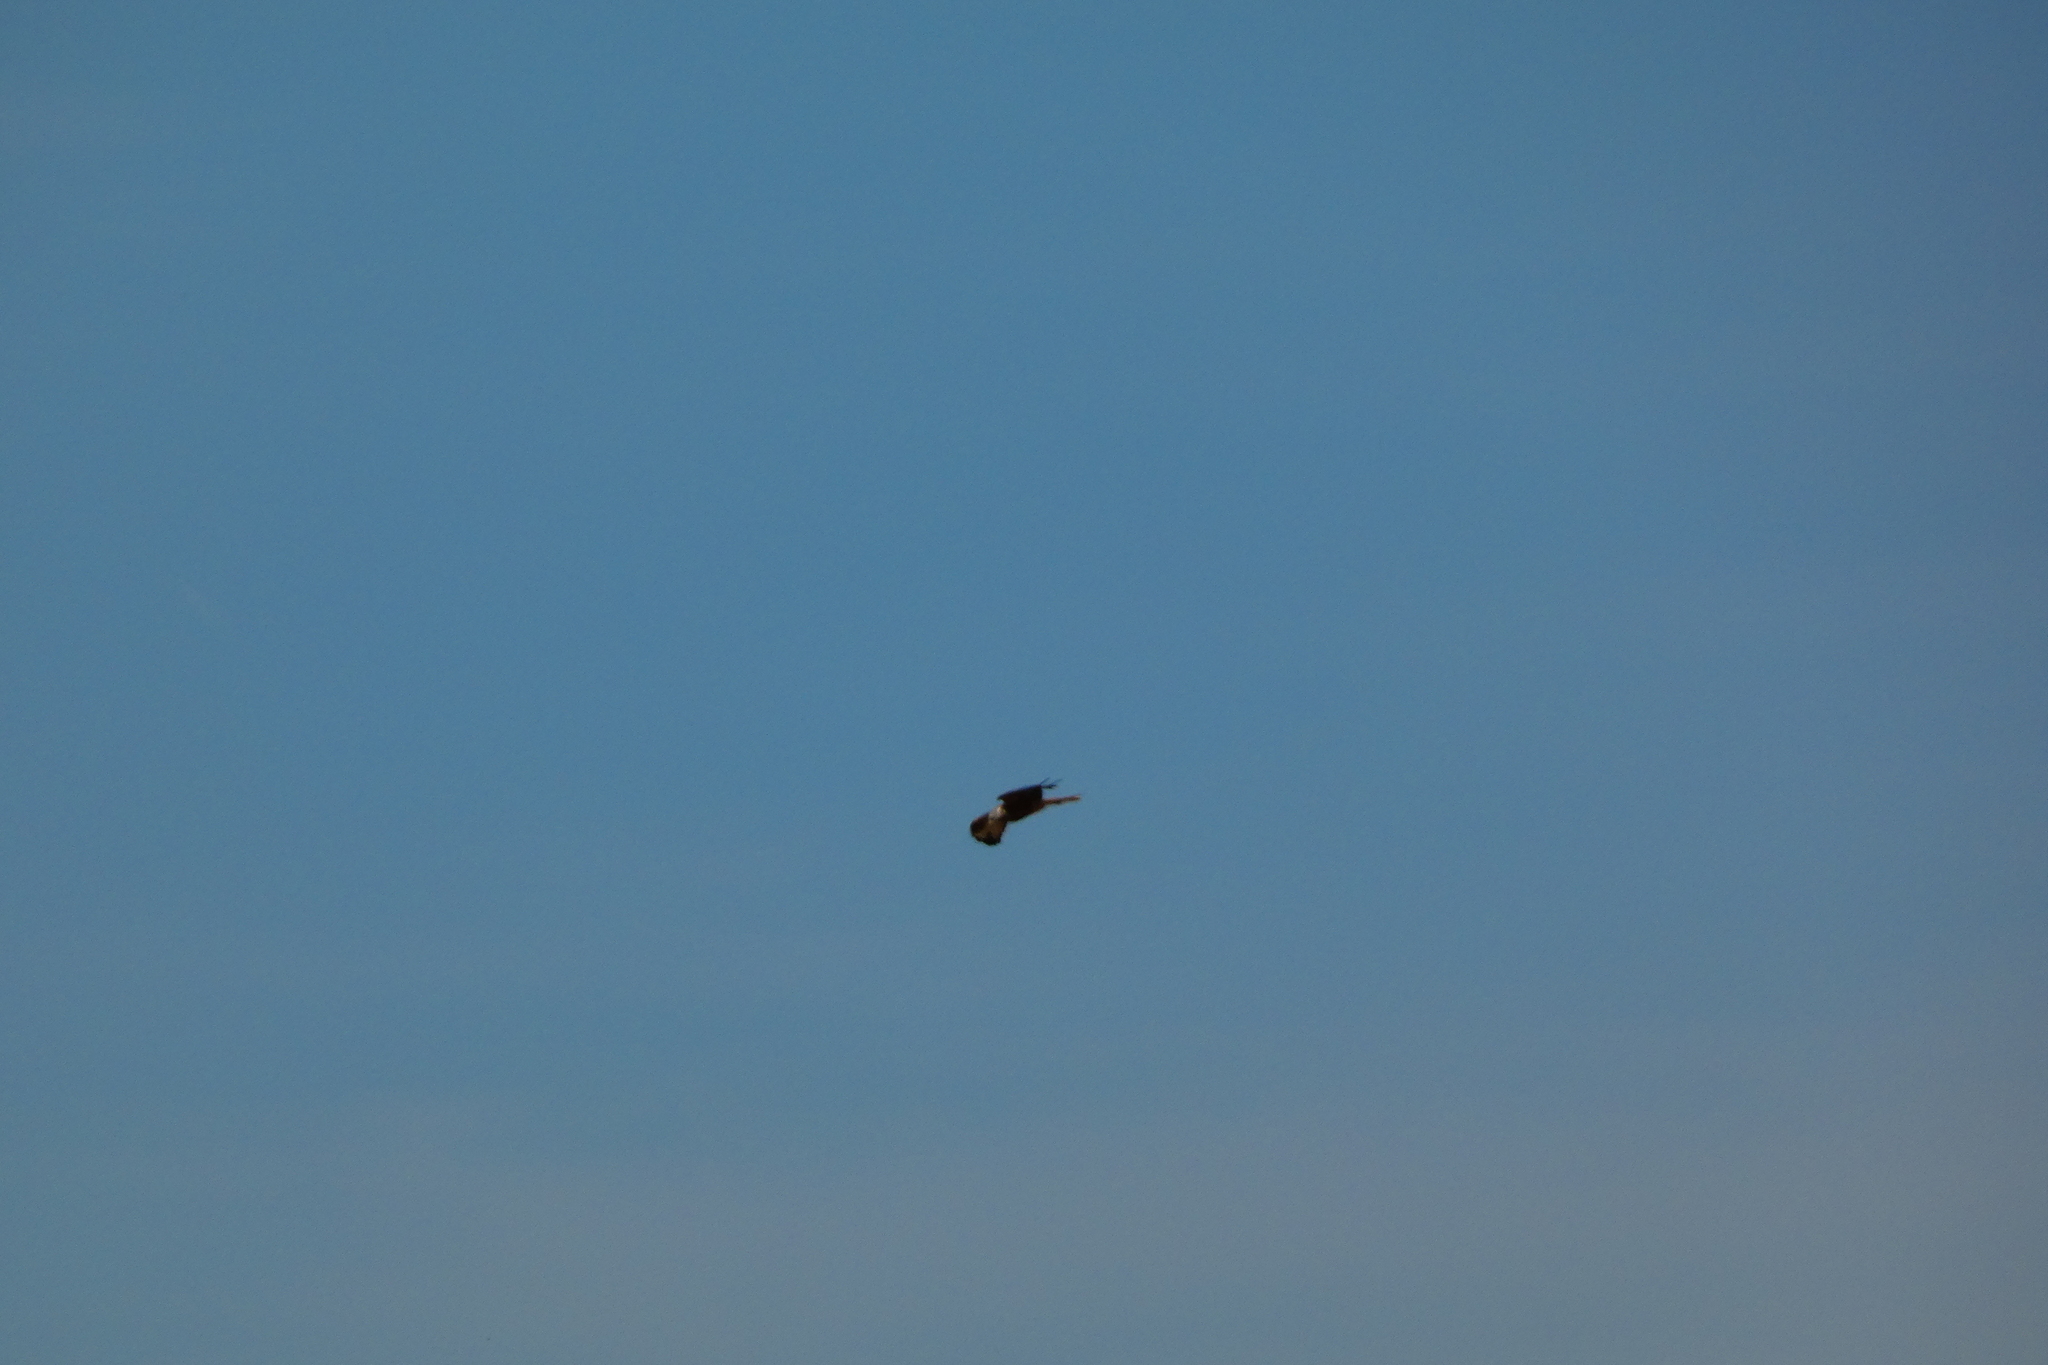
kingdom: Animalia
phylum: Chordata
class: Aves
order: Accipitriformes
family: Accipitridae
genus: Milvus
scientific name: Milvus milvus
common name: Red kite
